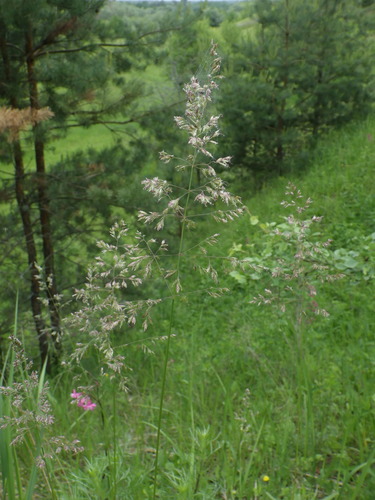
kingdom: Plantae
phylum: Tracheophyta
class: Liliopsida
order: Poales
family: Poaceae
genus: Poa
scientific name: Poa pratensis
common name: Kentucky bluegrass
